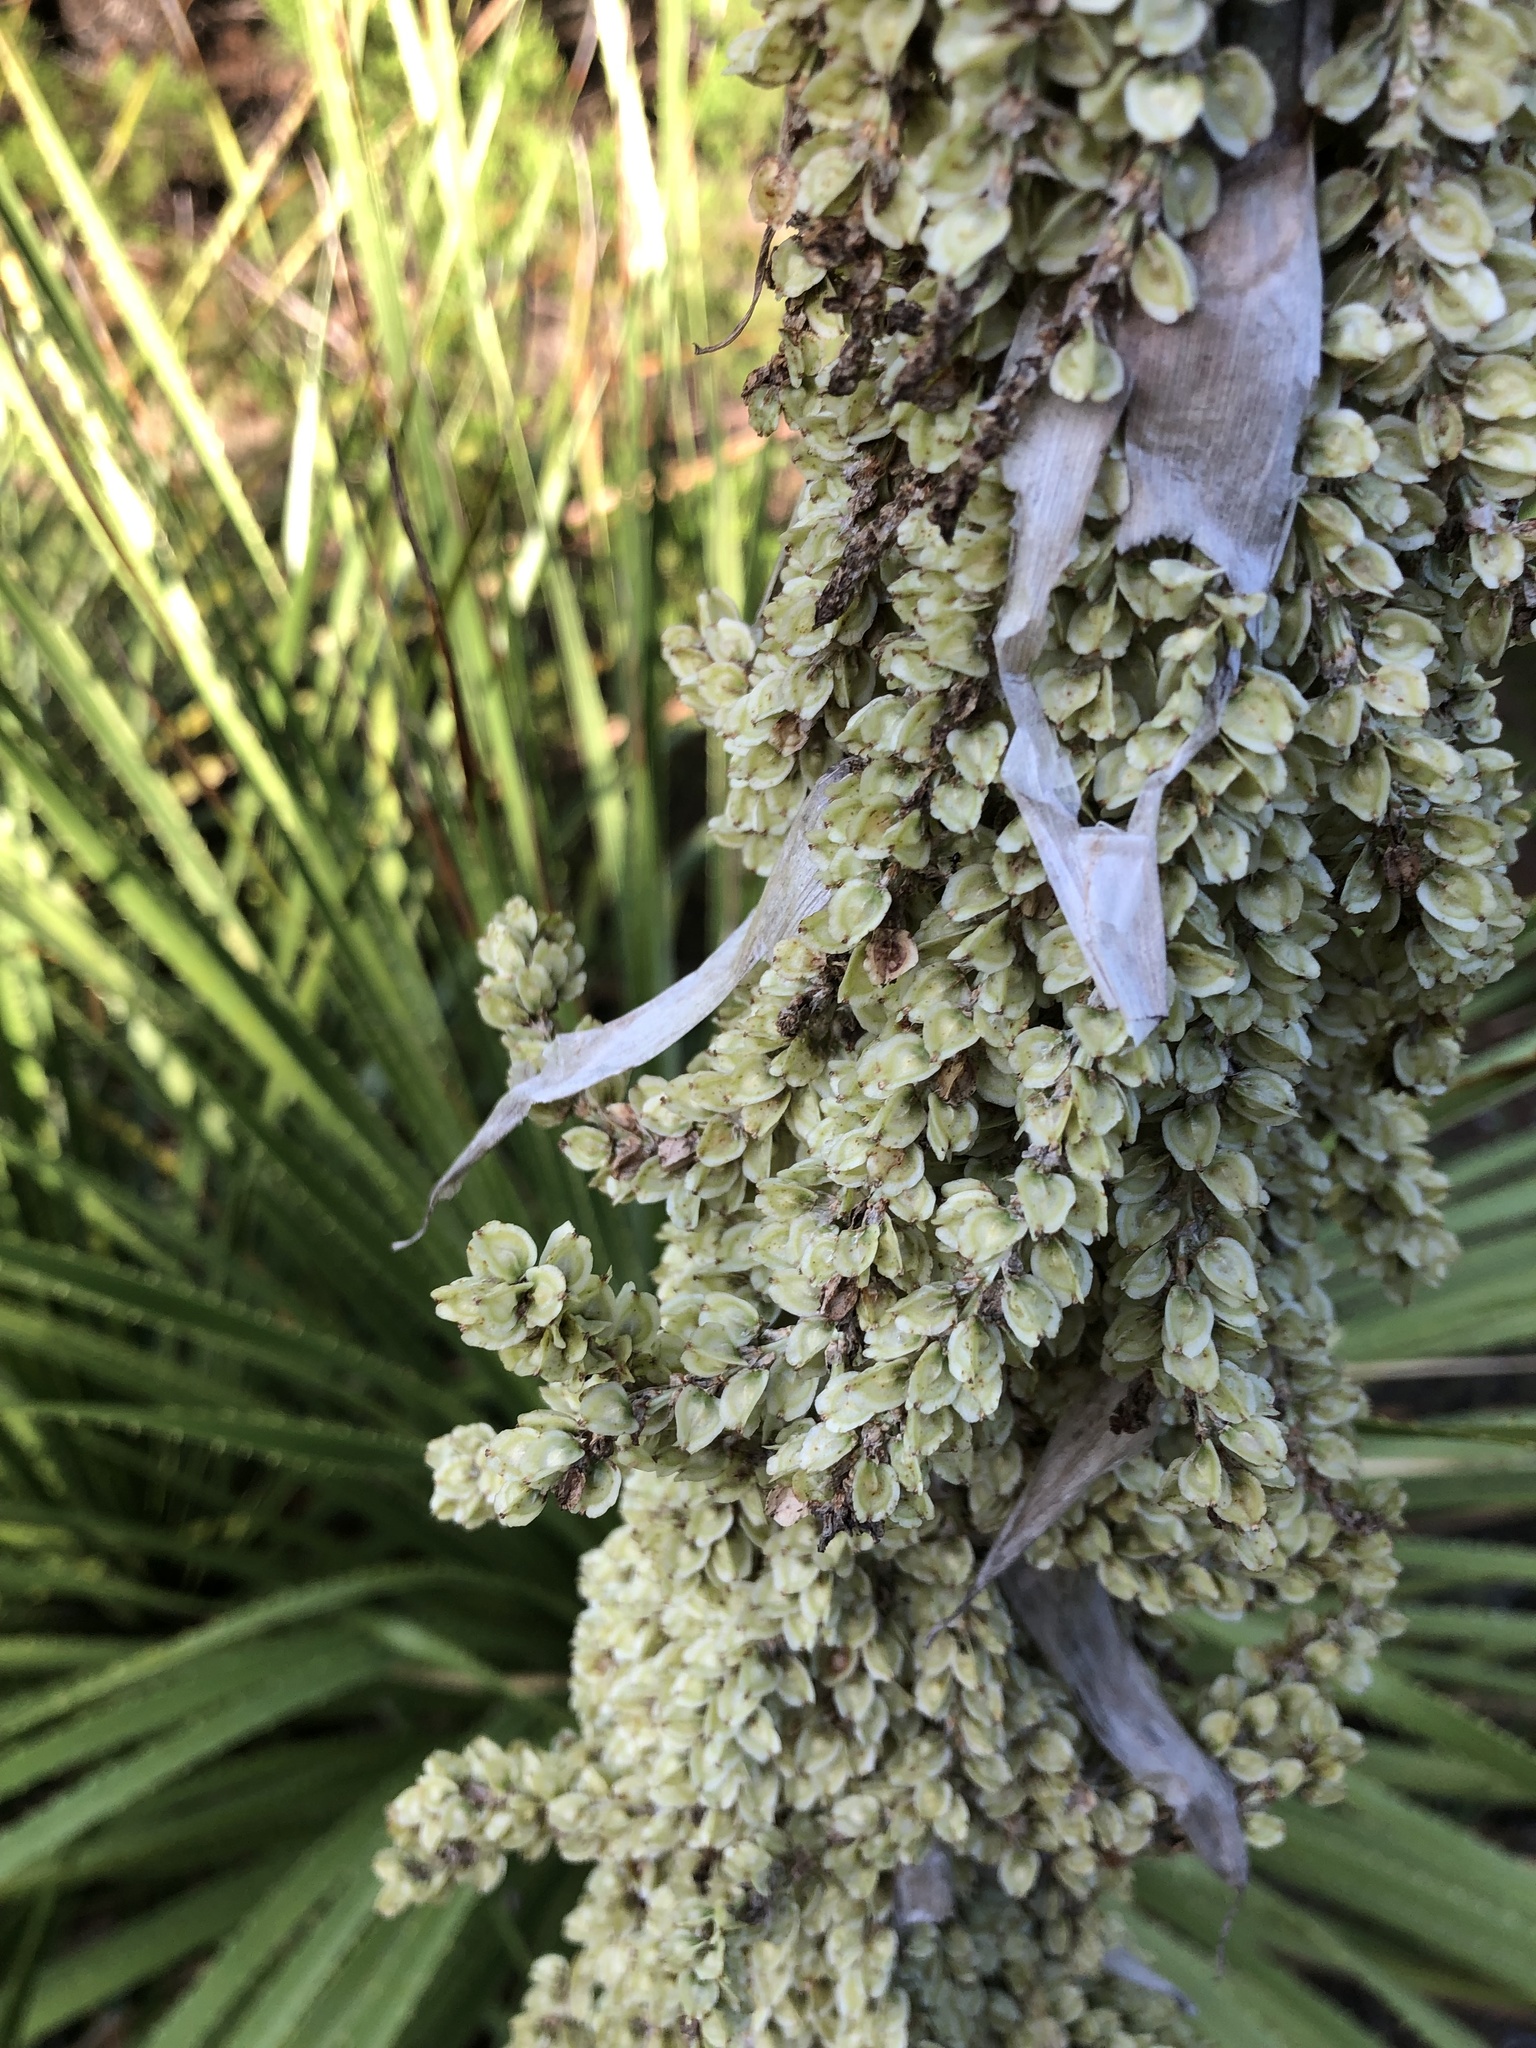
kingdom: Plantae
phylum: Tracheophyta
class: Liliopsida
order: Asparagales
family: Asparagaceae
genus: Dasylirion
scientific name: Dasylirion texanum
